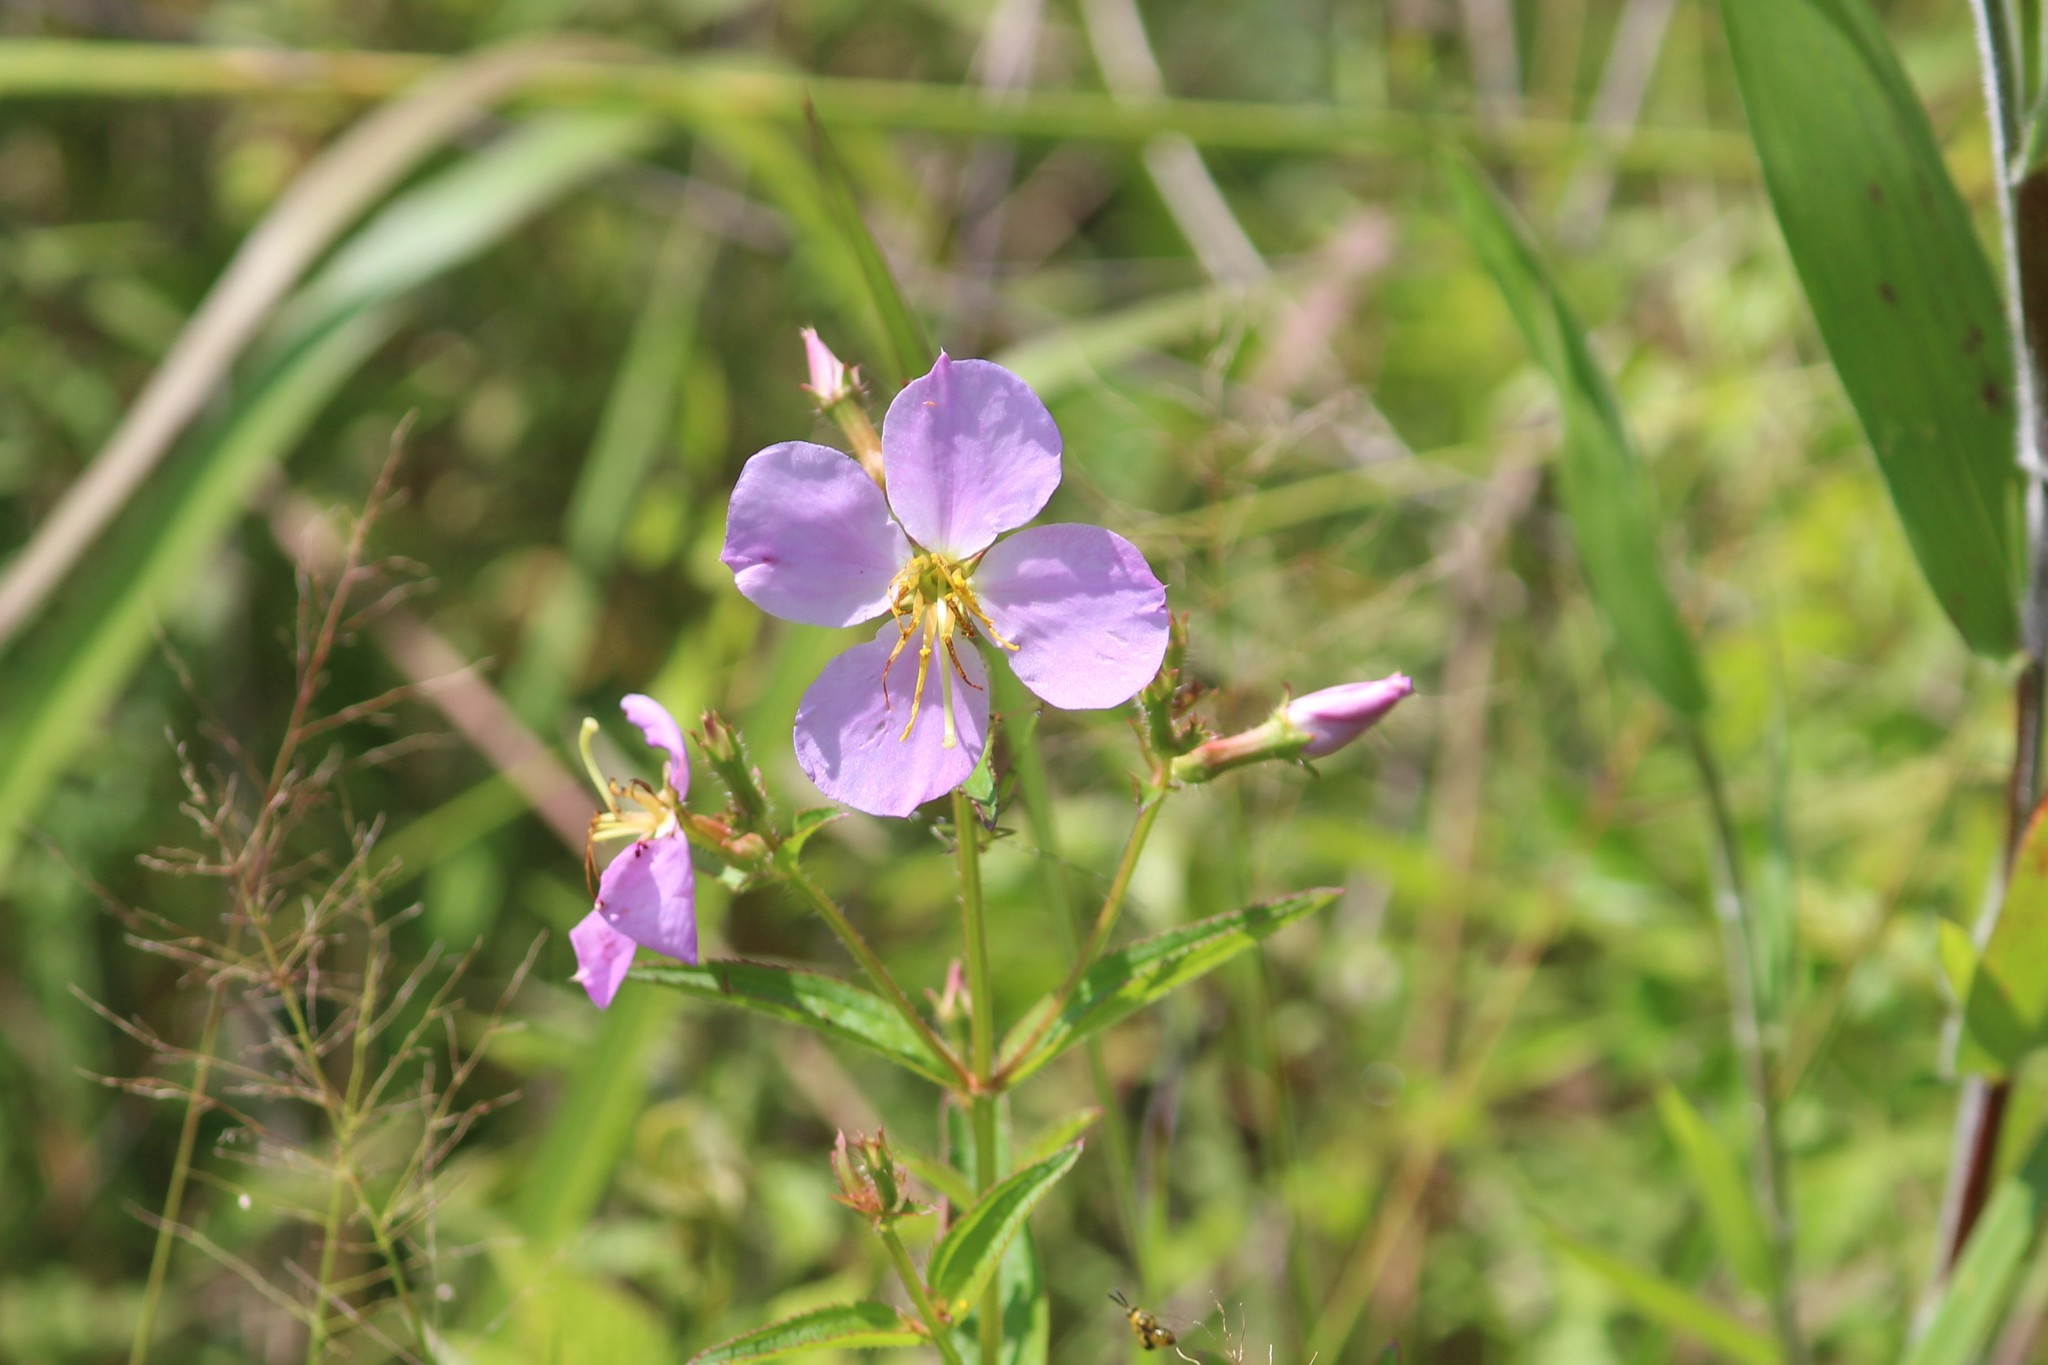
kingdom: Plantae
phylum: Tracheophyta
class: Magnoliopsida
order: Myrtales
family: Melastomataceae
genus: Rhexia
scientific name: Rhexia mariana
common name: Dull meadow-pitcher
